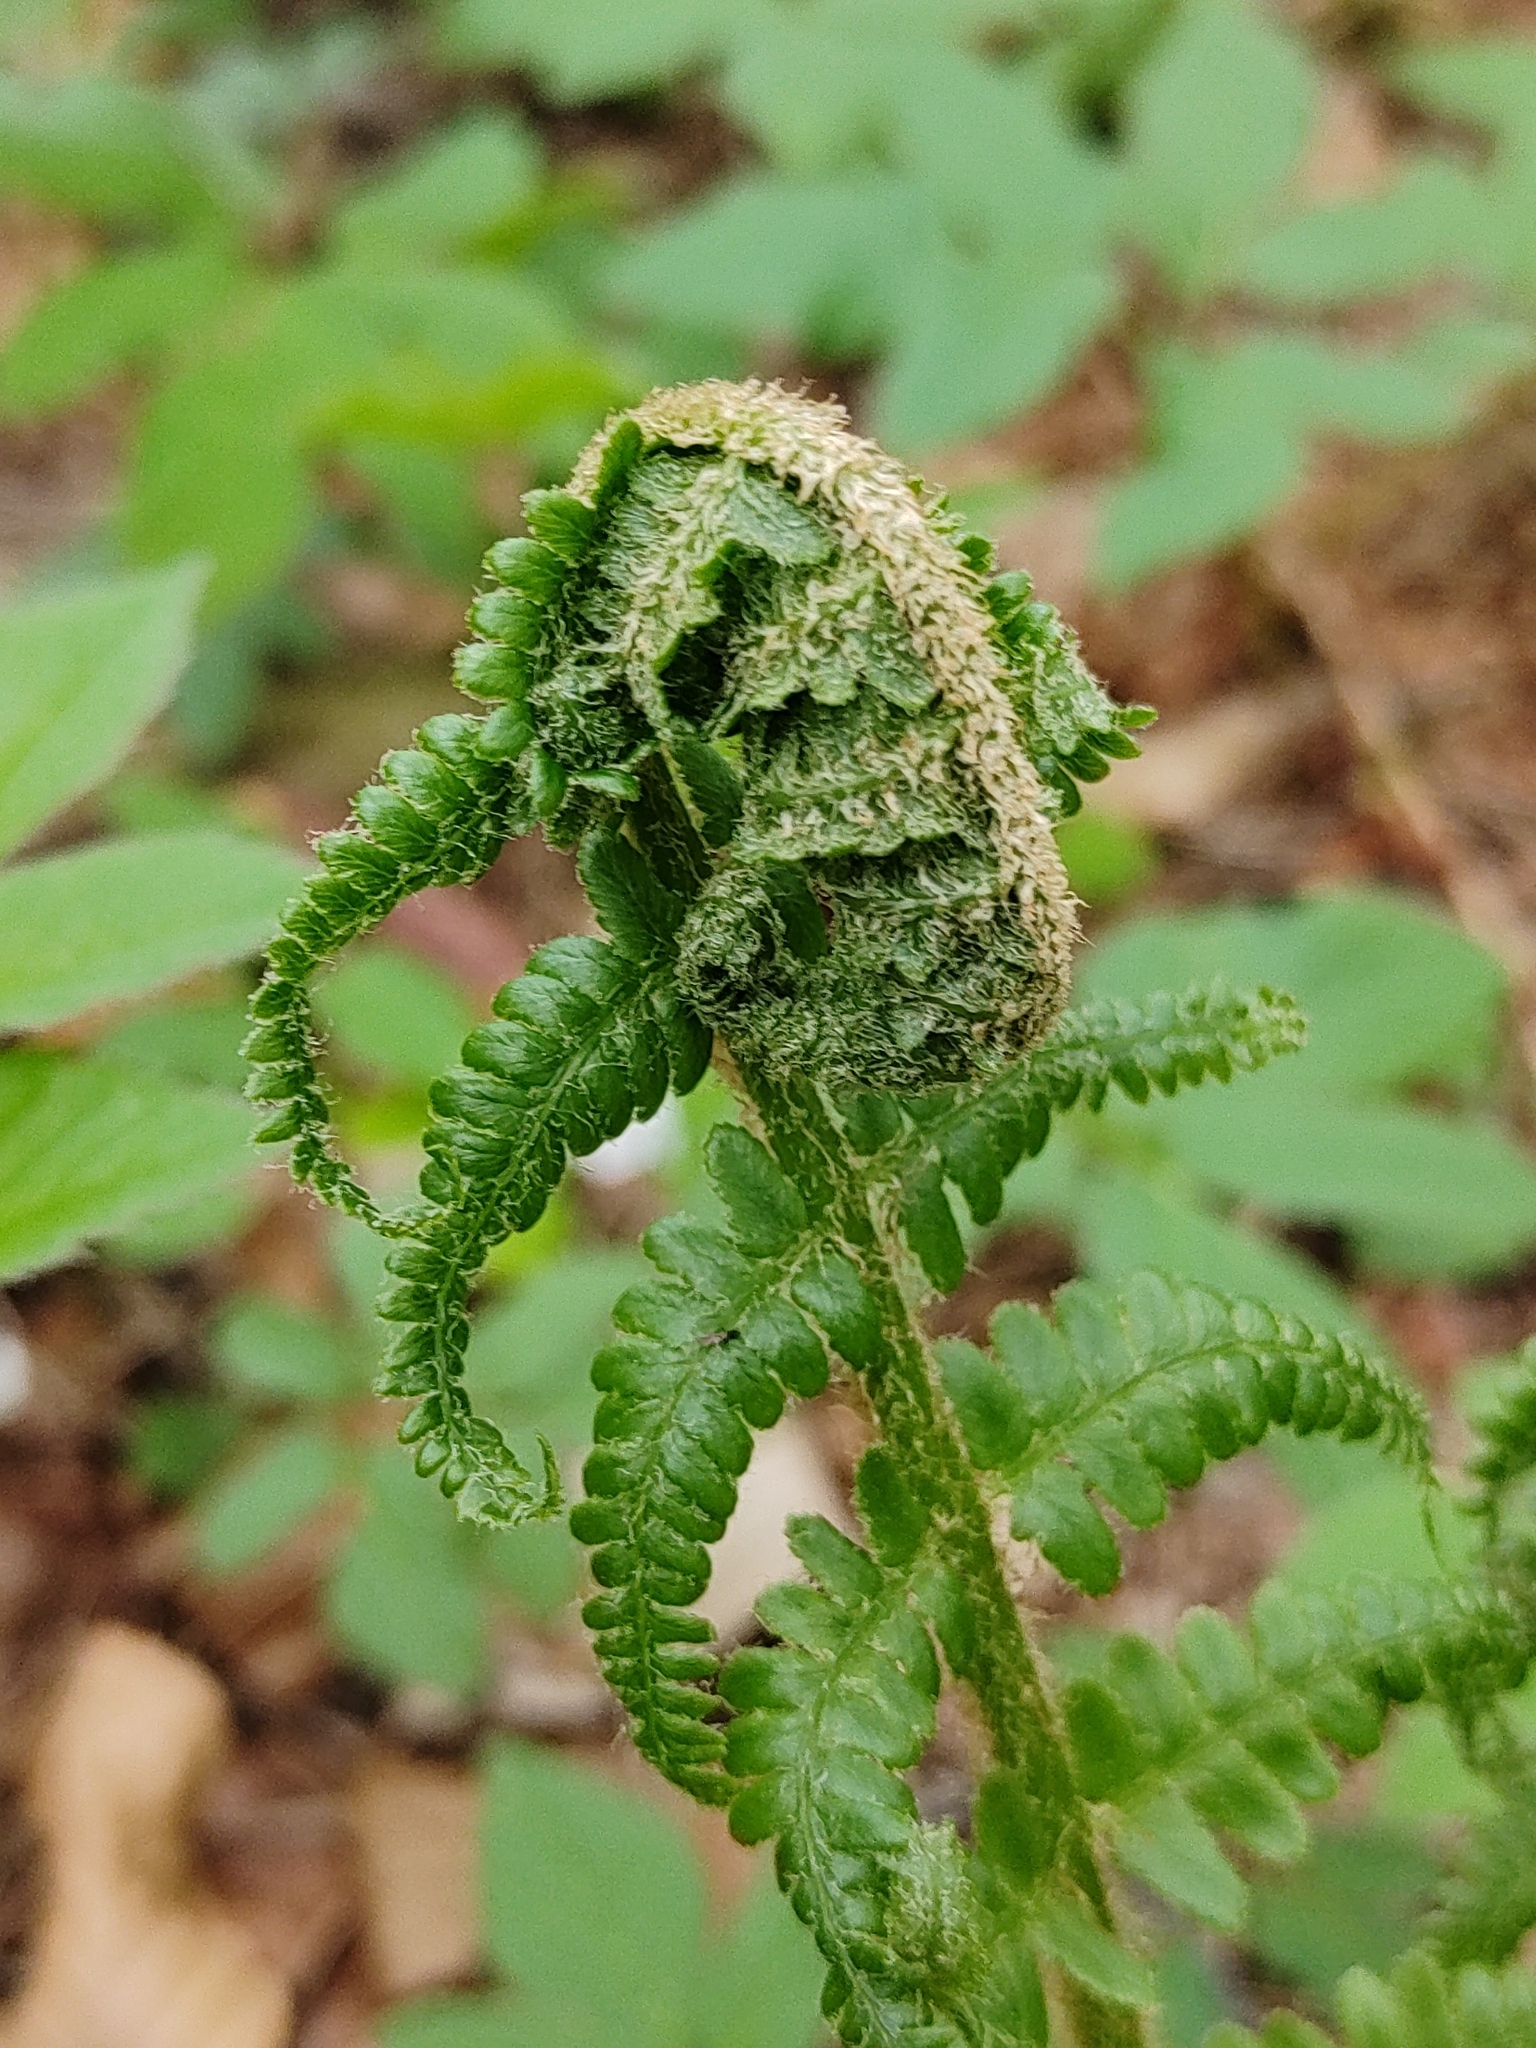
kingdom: Plantae
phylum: Tracheophyta
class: Polypodiopsida
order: Polypodiales
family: Dryopteridaceae
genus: Dryopteris
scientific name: Dryopteris filix-mas
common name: Male fern
